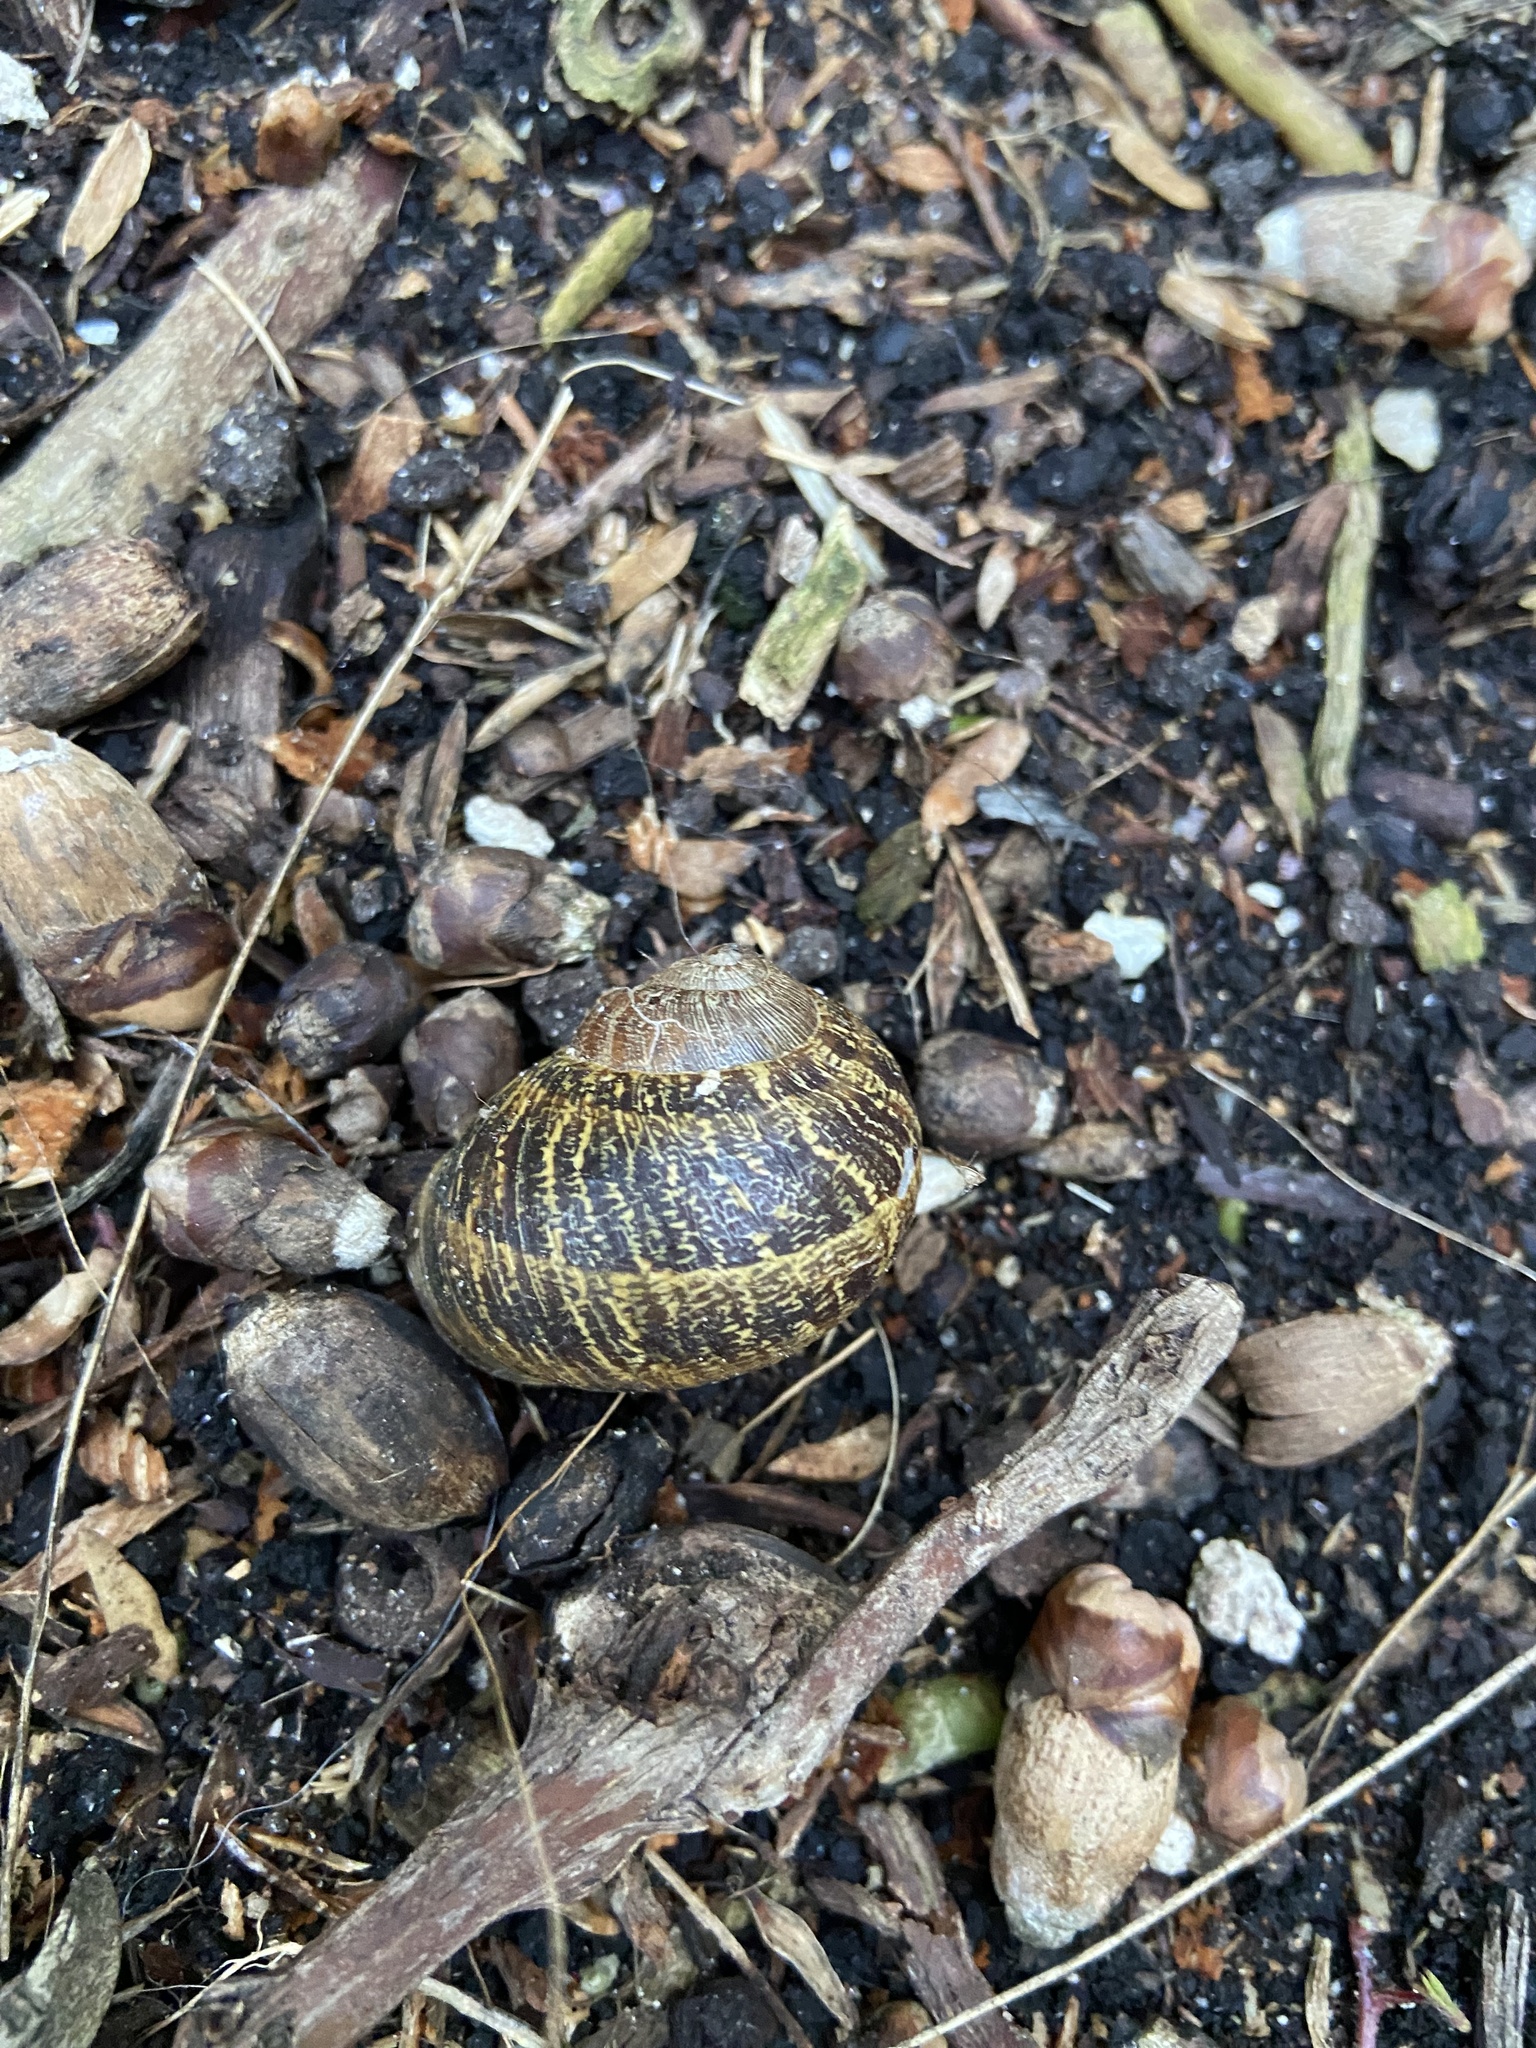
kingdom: Animalia
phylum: Mollusca
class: Gastropoda
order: Stylommatophora
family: Helicidae
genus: Cornu
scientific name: Cornu aspersum
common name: Brown garden snail
